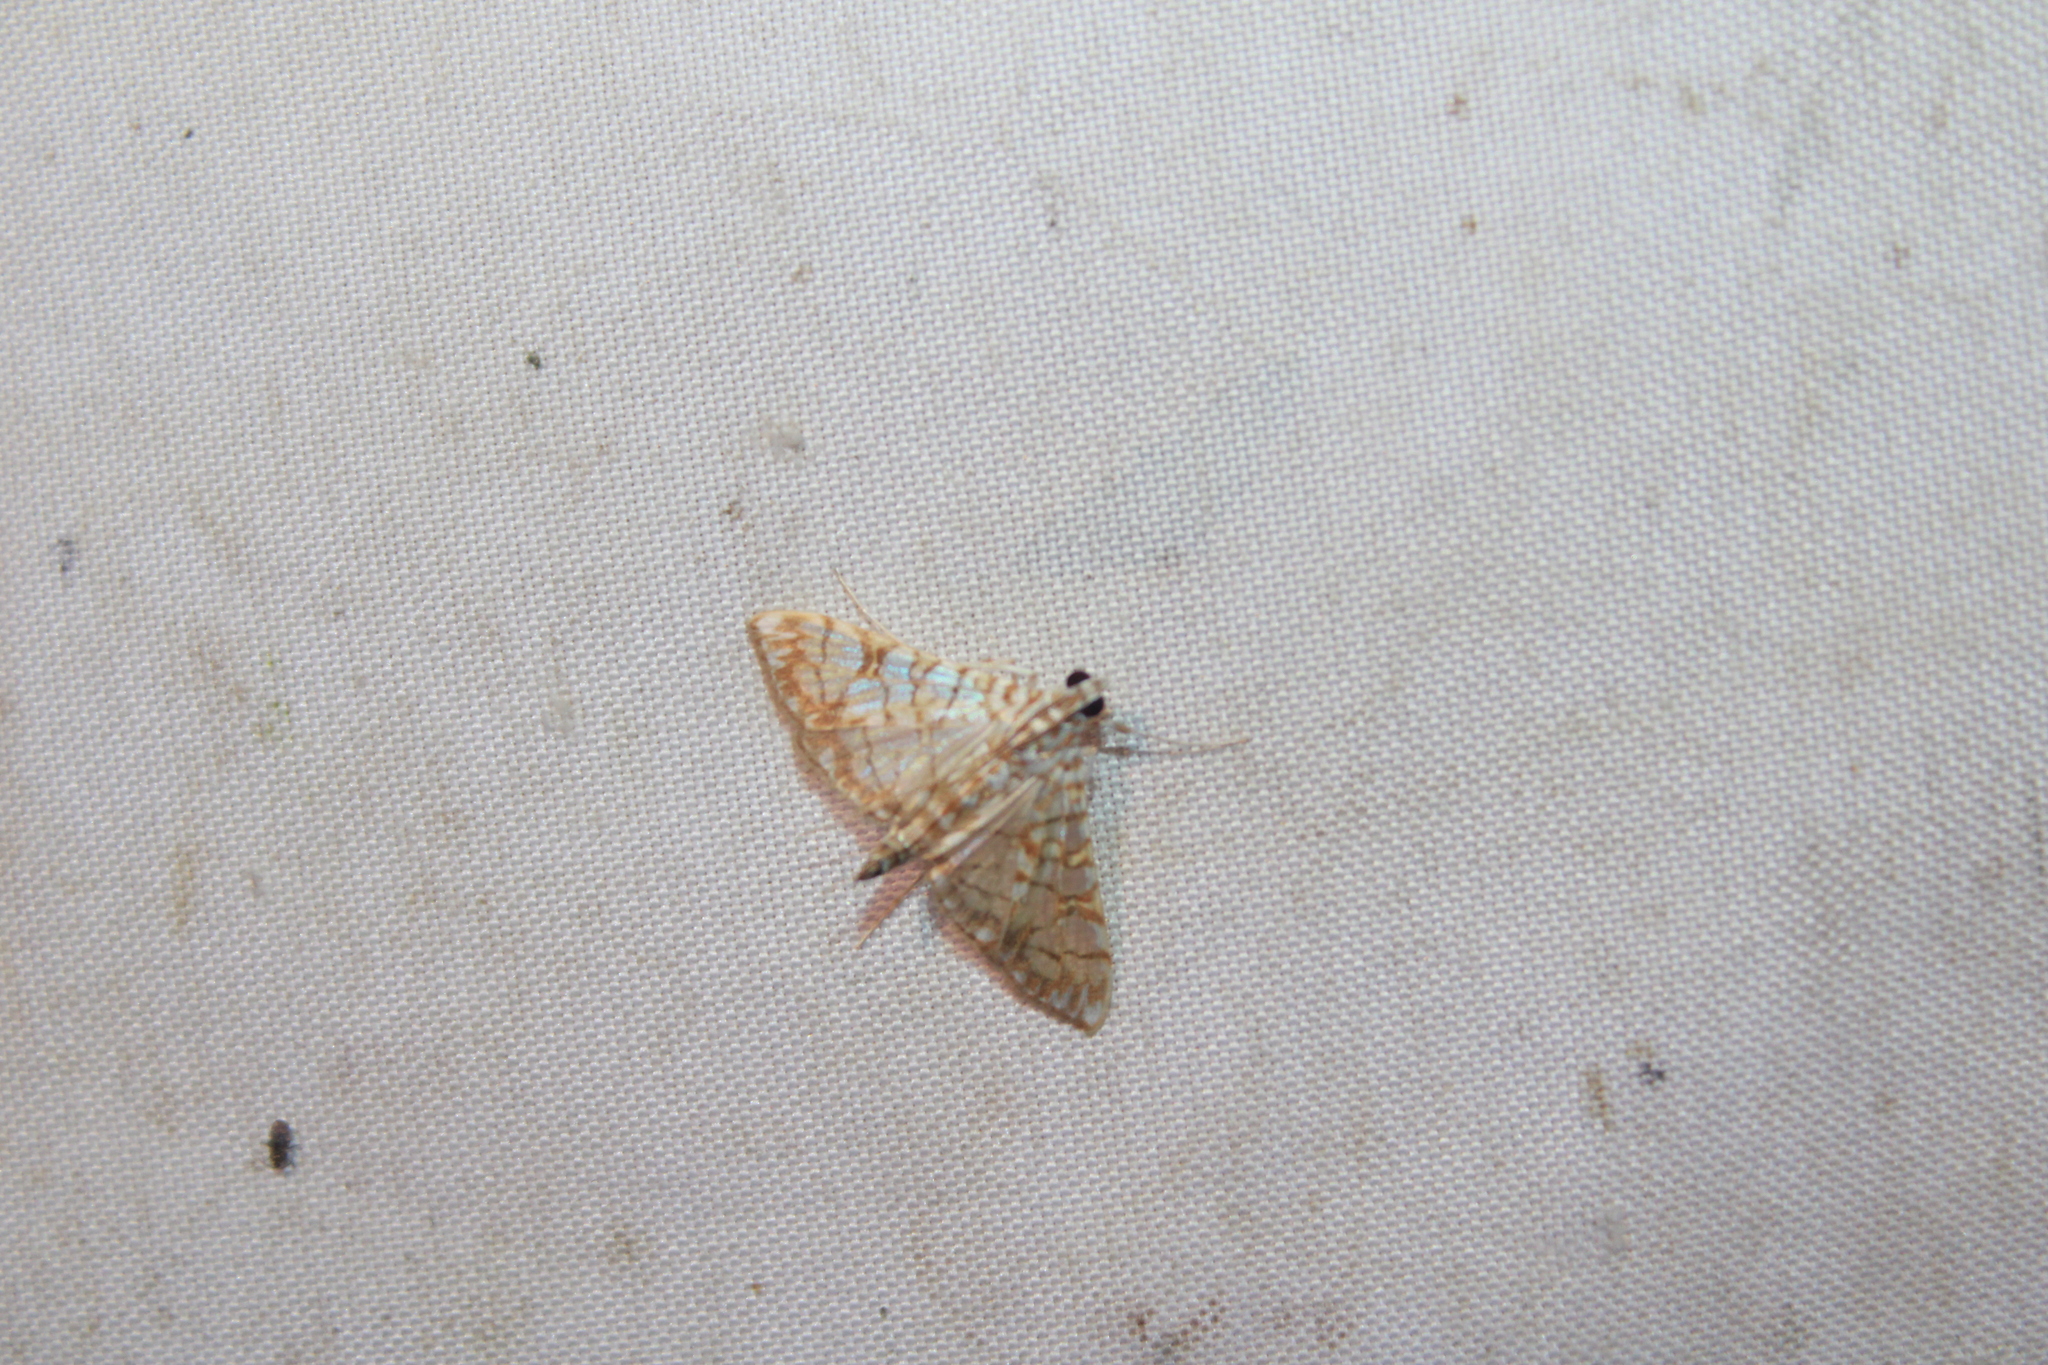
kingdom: Animalia
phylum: Arthropoda
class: Insecta
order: Lepidoptera
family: Crambidae
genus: Synclera
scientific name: Synclera traducalis
